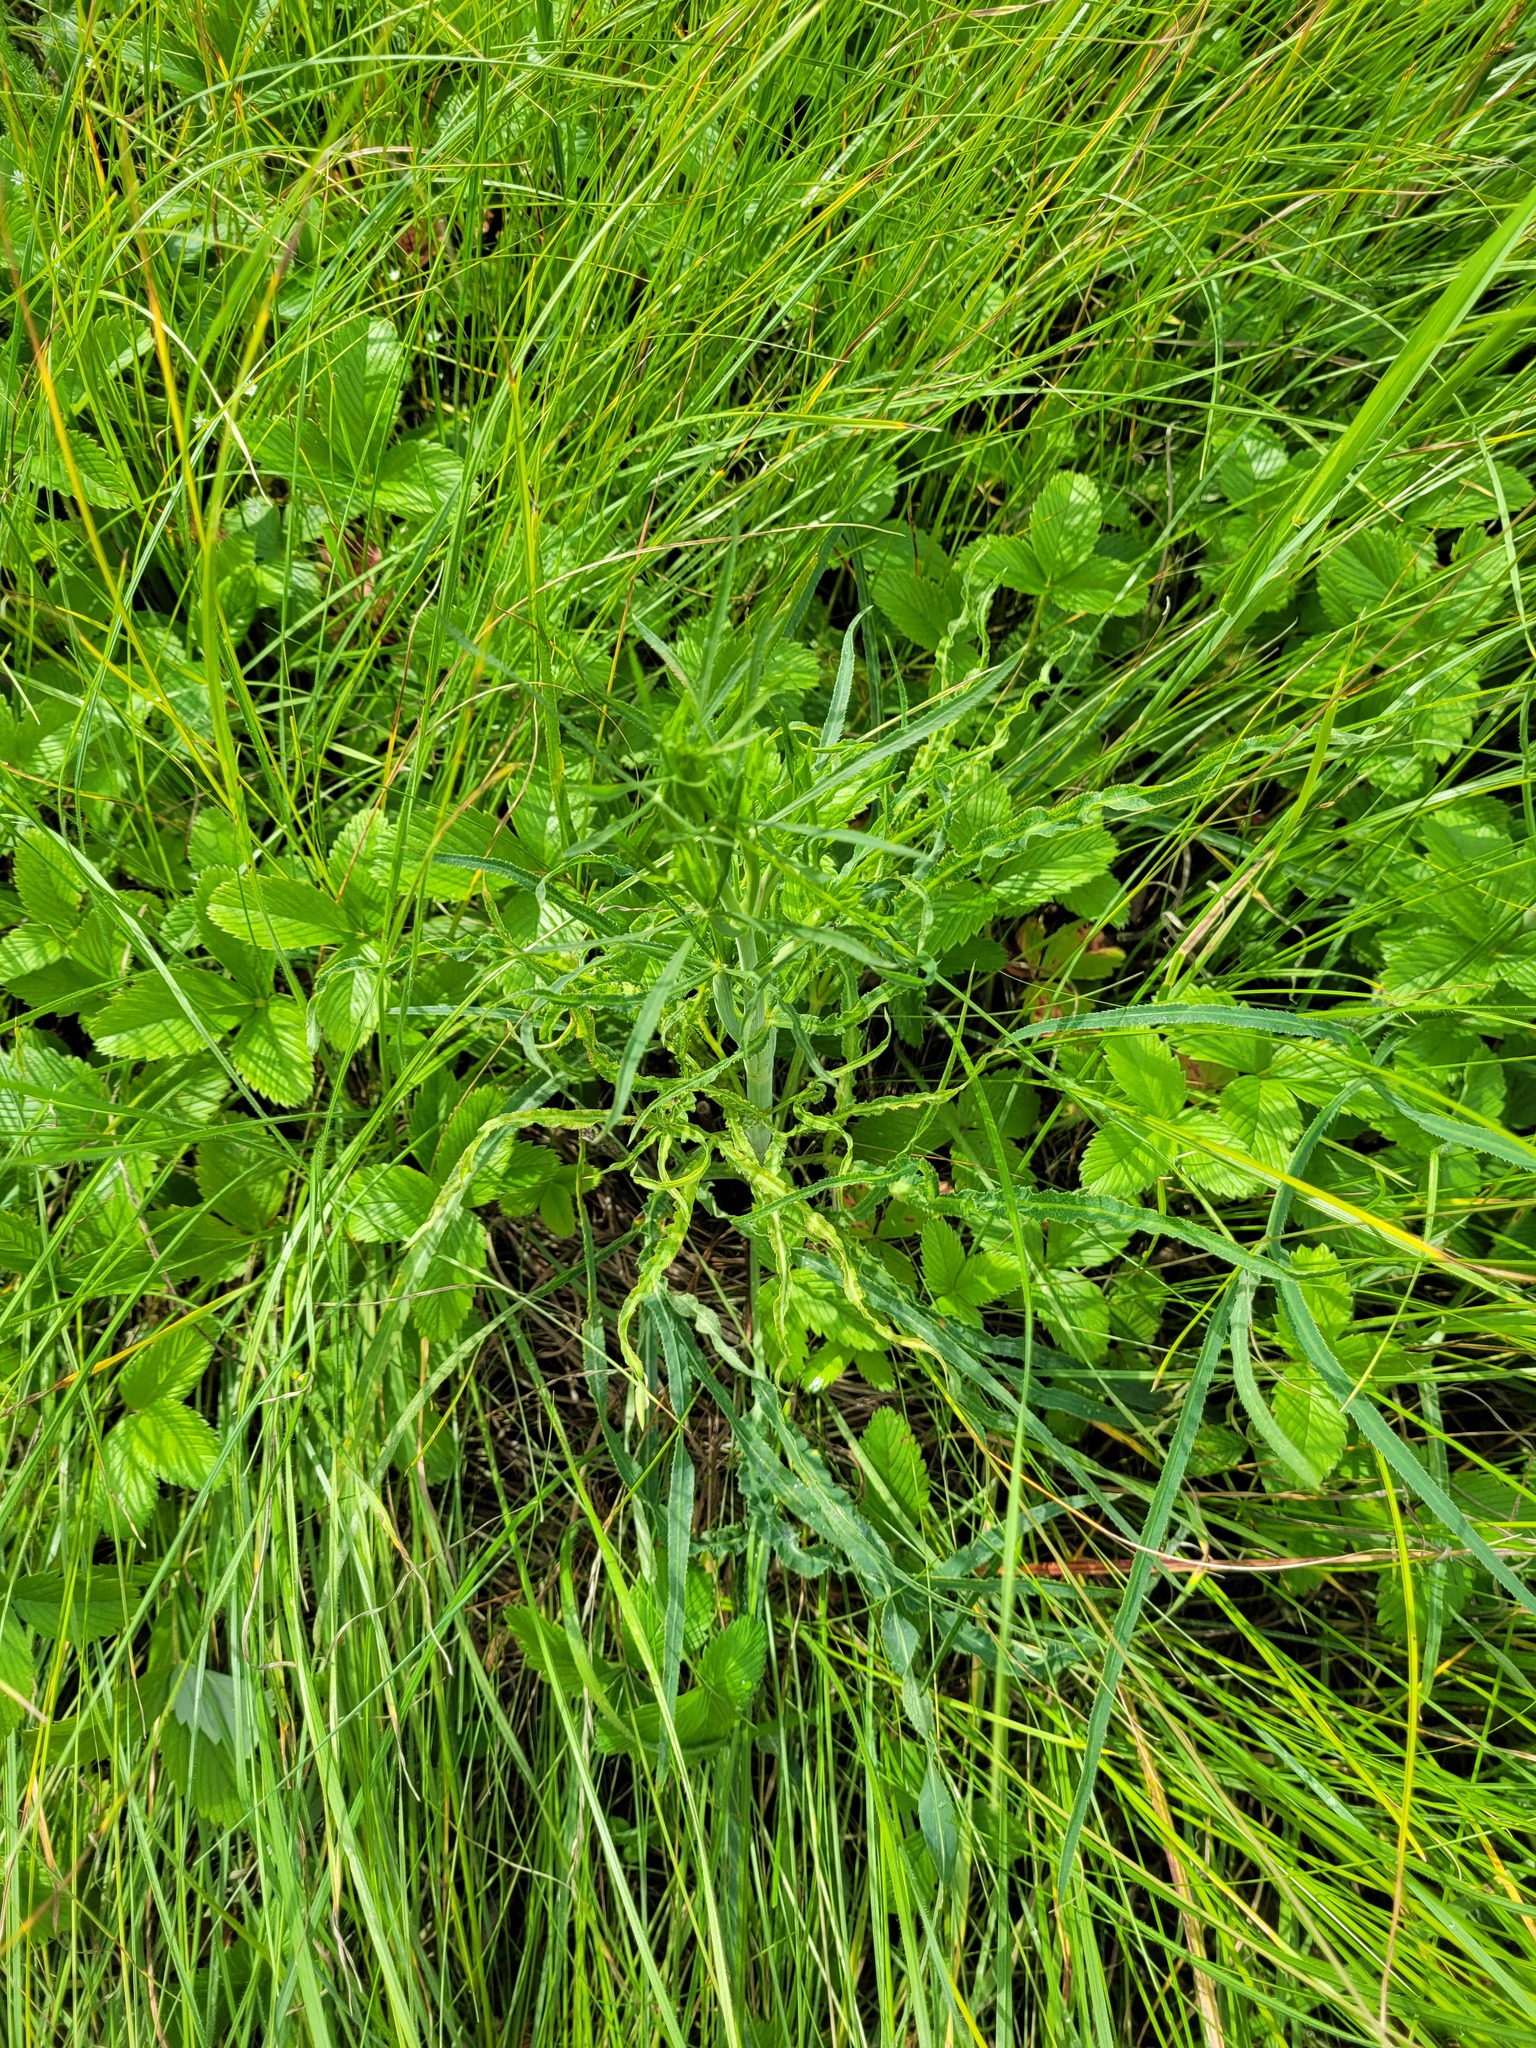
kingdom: Plantae
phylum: Tracheophyta
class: Magnoliopsida
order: Apiales
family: Apiaceae
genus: Falcaria
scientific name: Falcaria vulgaris
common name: Longleaf
